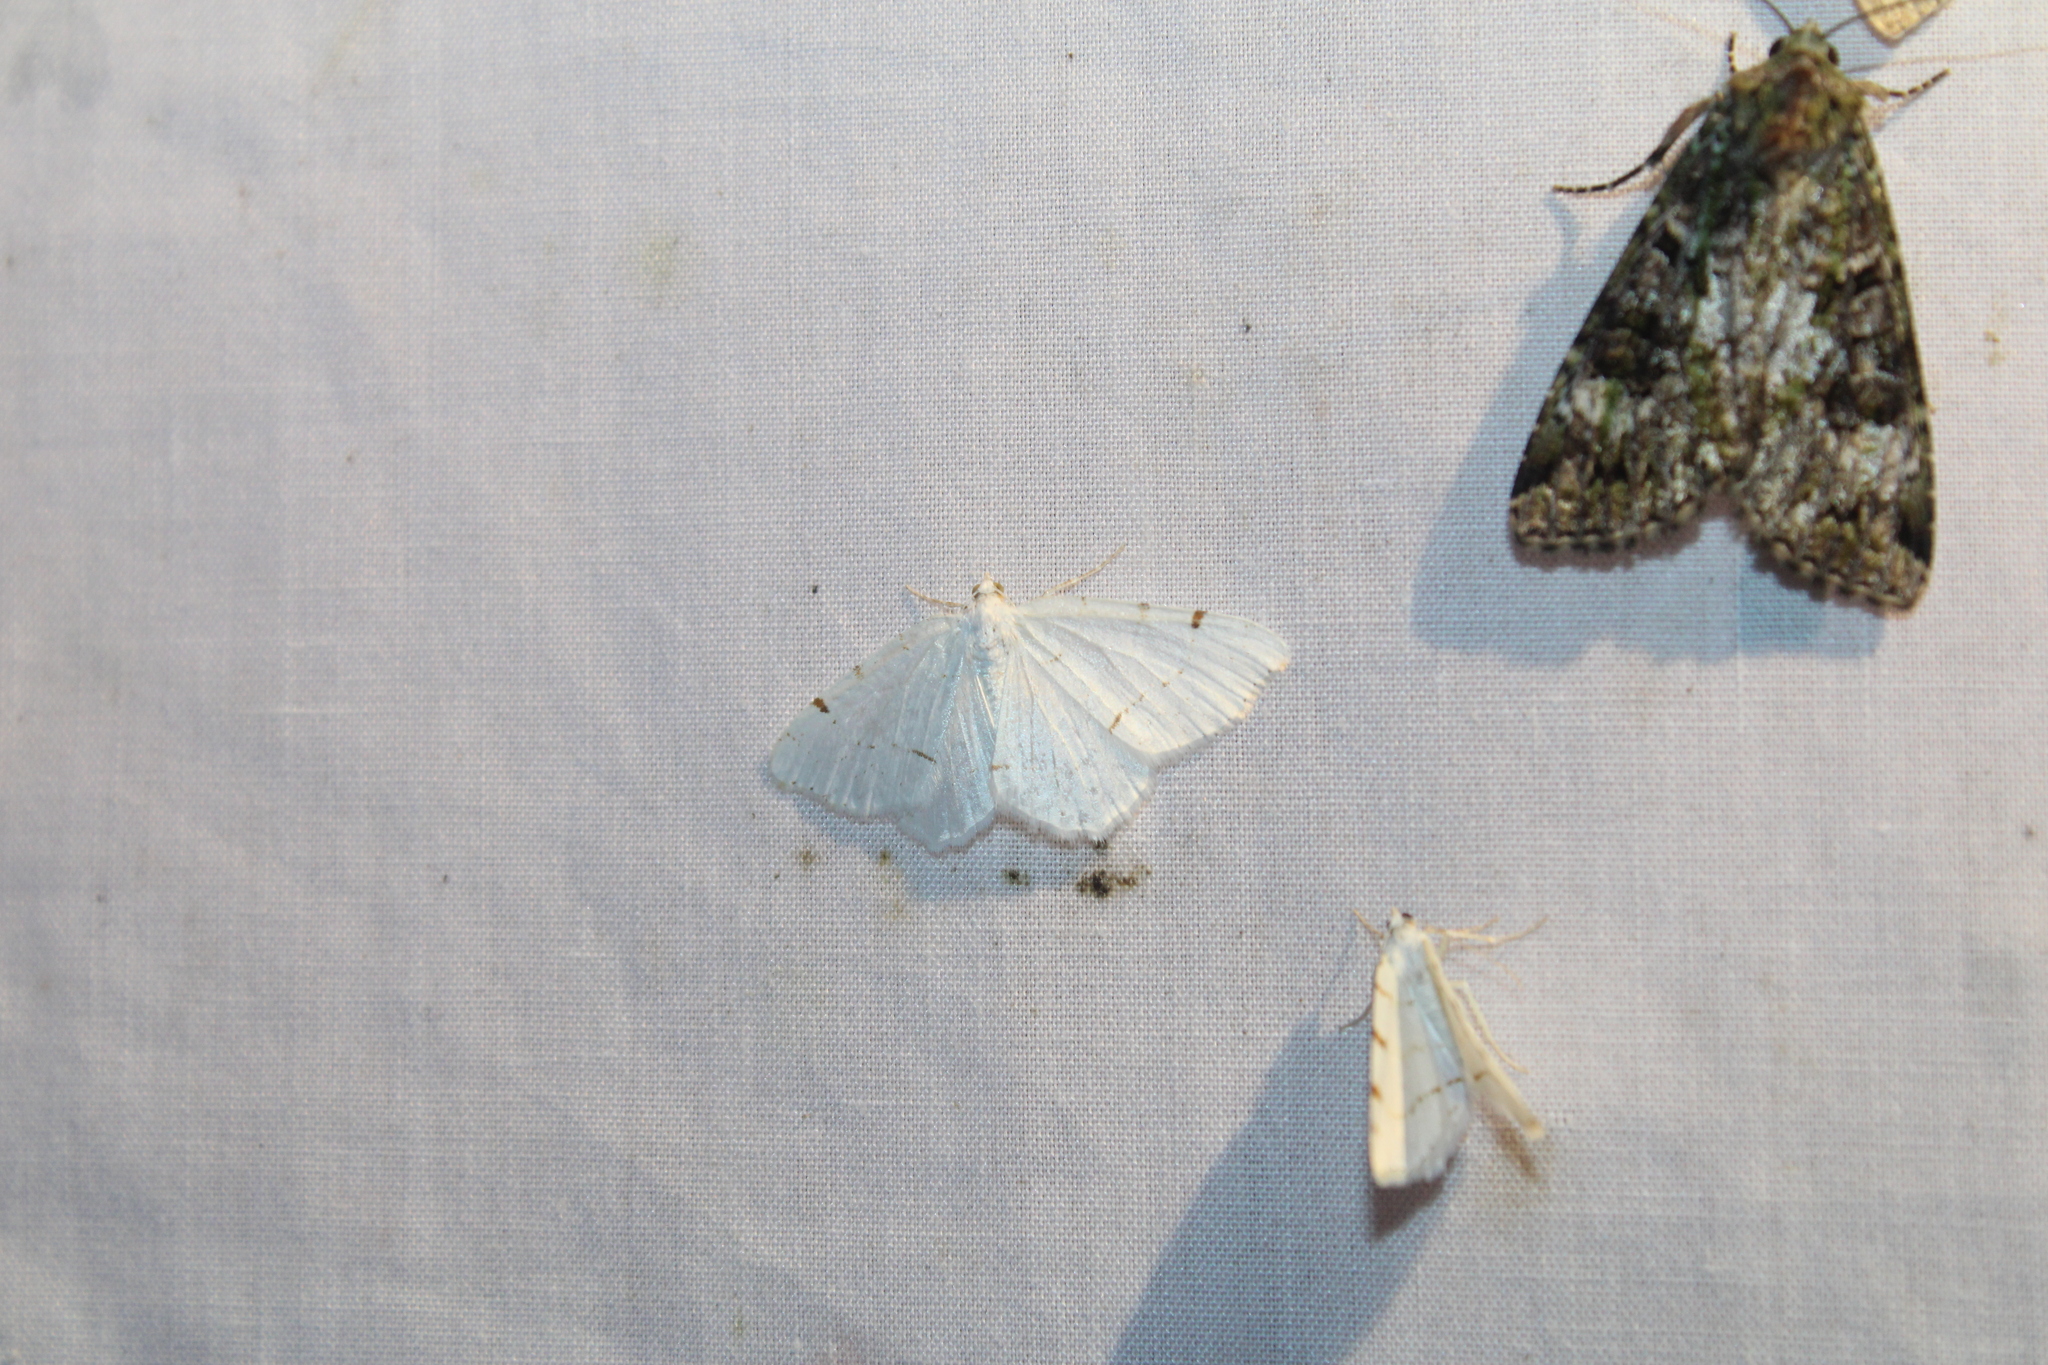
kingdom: Animalia
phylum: Arthropoda
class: Insecta
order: Lepidoptera
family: Geometridae
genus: Macaria
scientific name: Macaria pustularia
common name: Lesser maple spanworm moth
